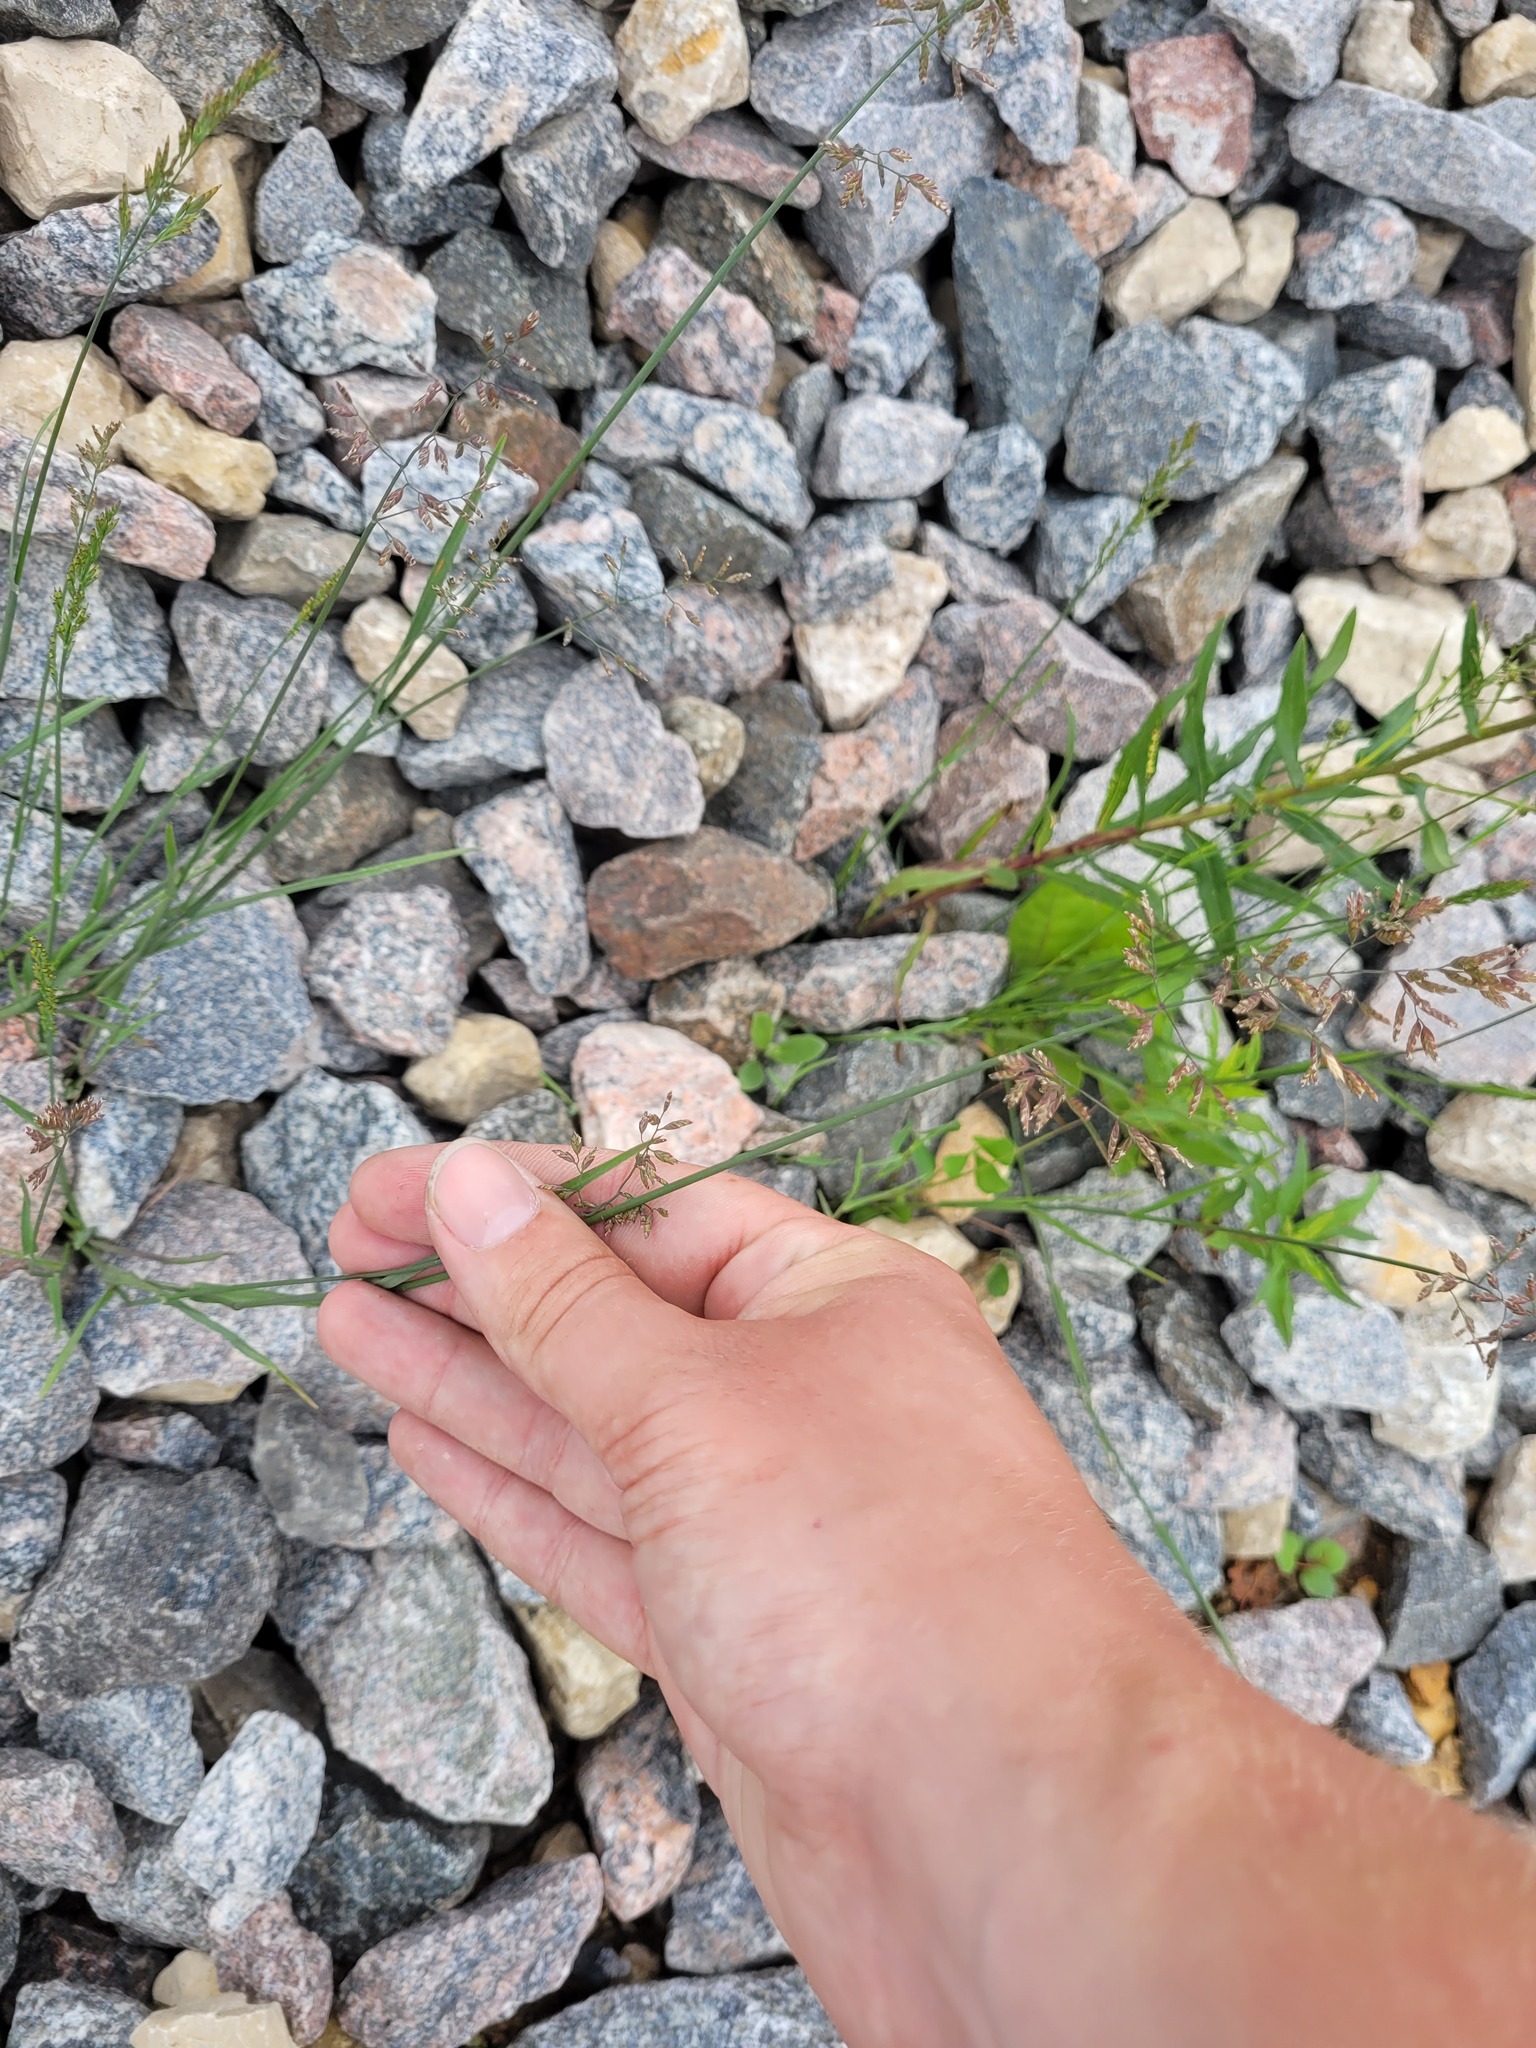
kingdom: Plantae
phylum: Tracheophyta
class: Liliopsida
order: Poales
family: Poaceae
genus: Poa
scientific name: Poa compressa
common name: Canada bluegrass
